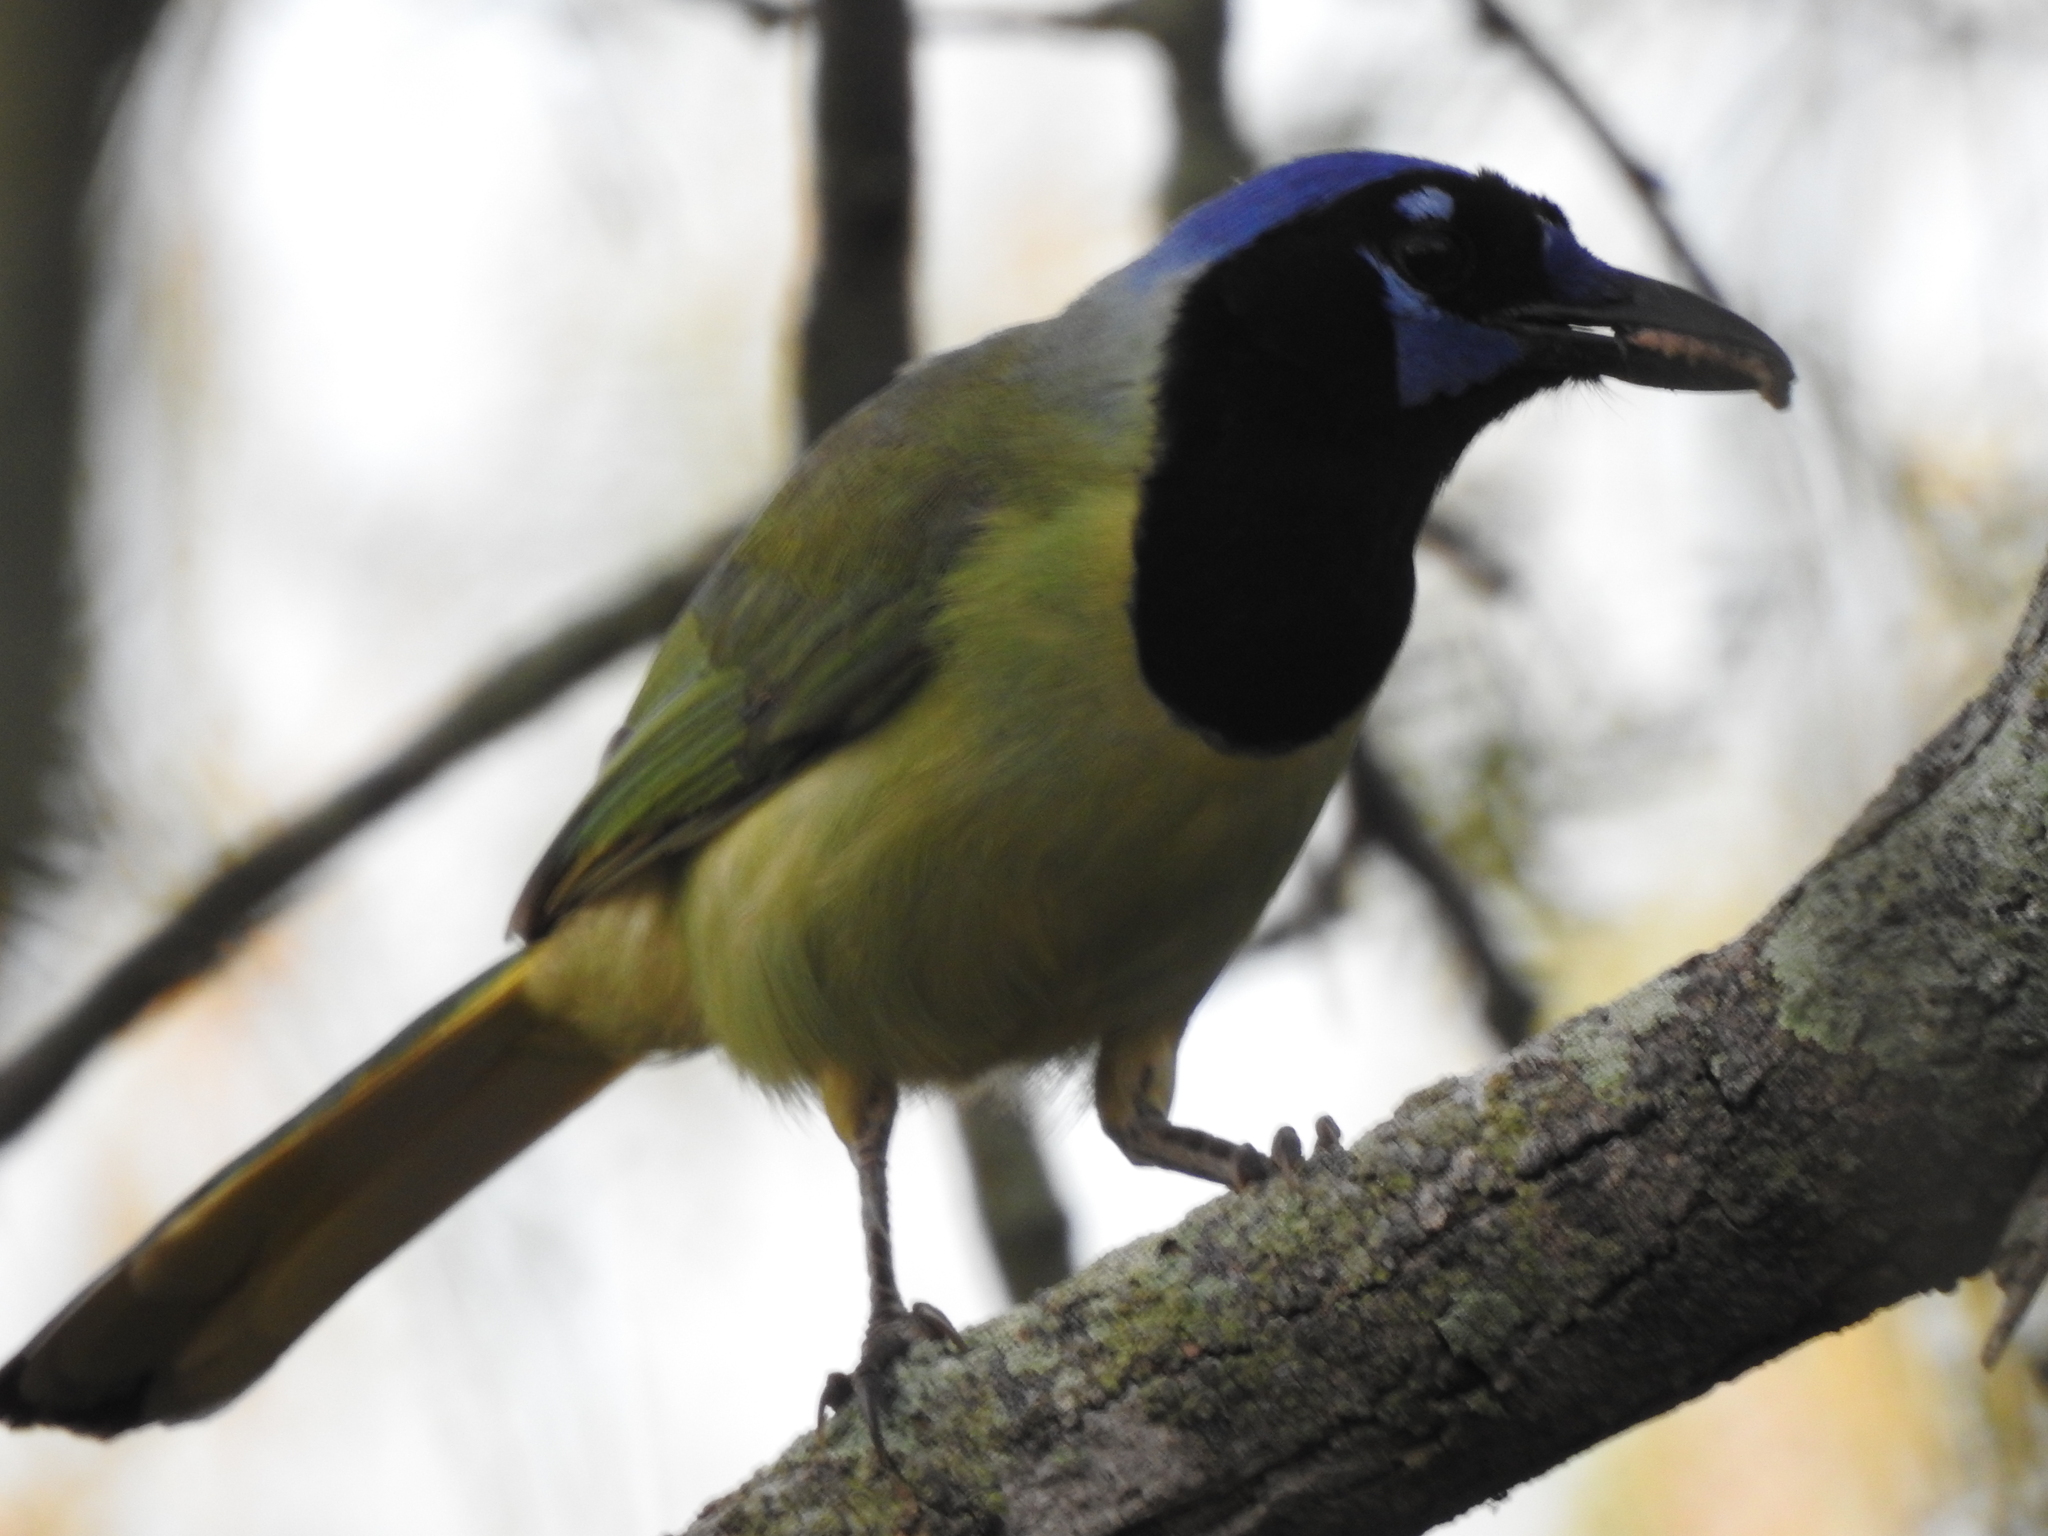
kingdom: Animalia
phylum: Chordata
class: Aves
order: Passeriformes
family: Corvidae
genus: Cyanocorax
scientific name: Cyanocorax yncas
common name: Green jay
